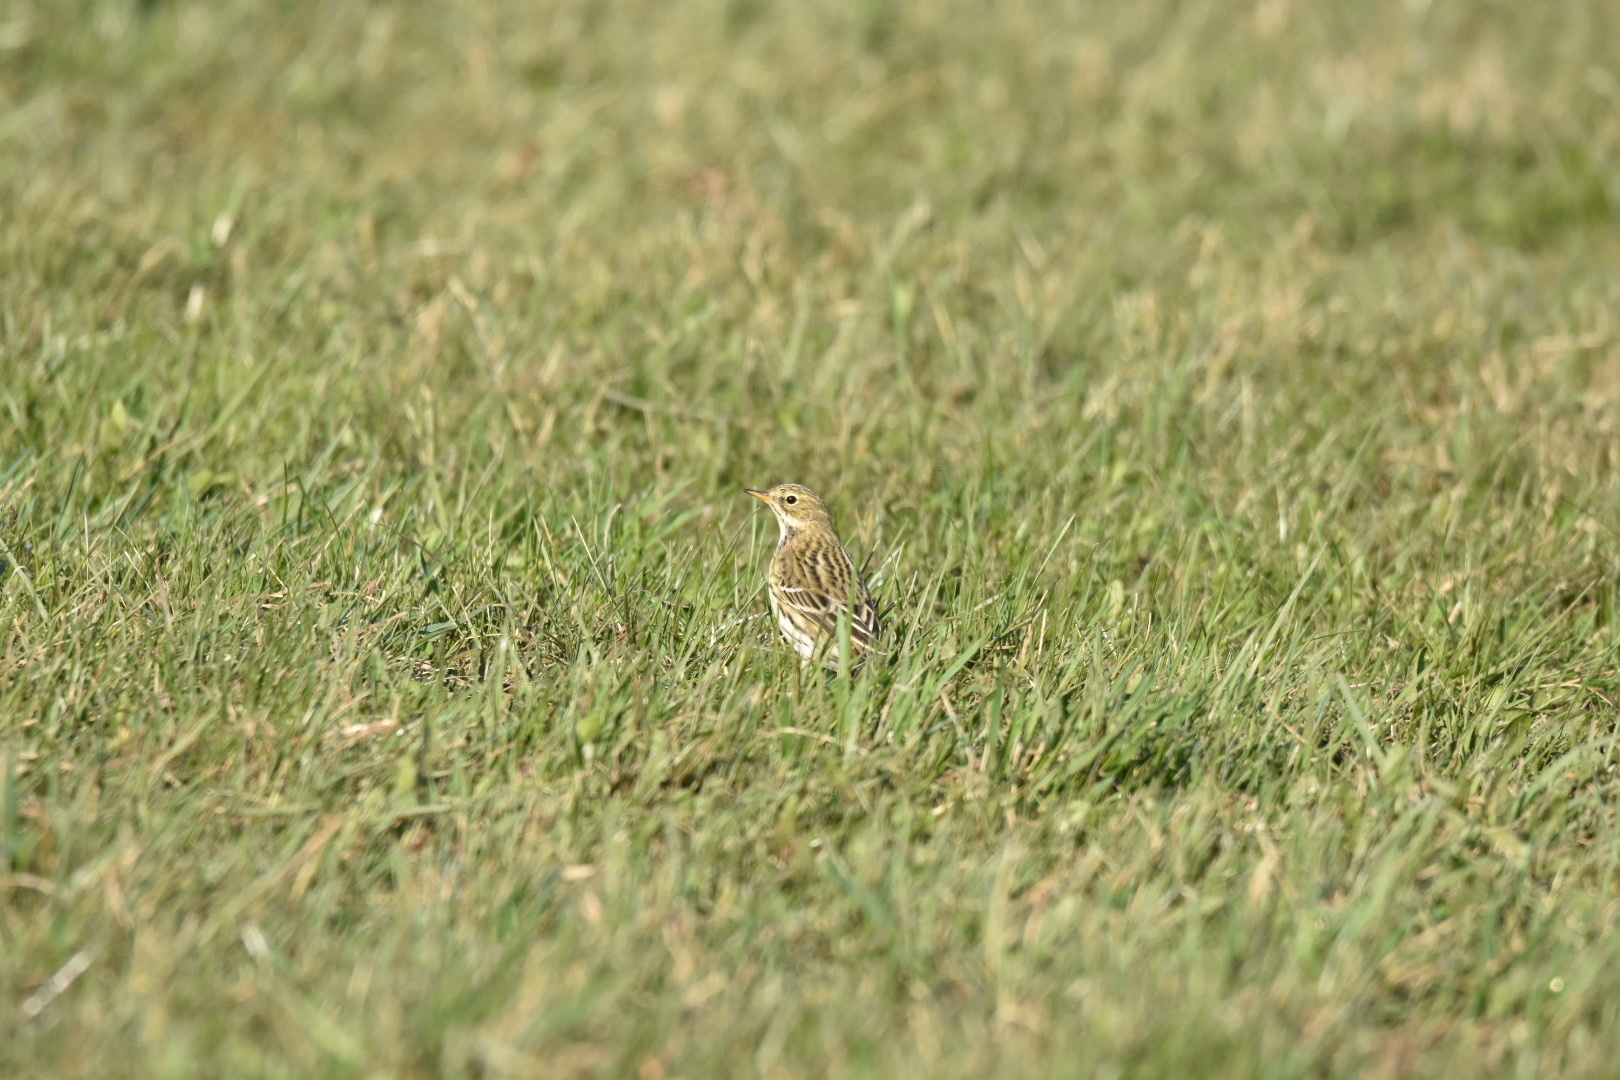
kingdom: Animalia
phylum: Chordata
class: Aves
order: Passeriformes
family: Motacillidae
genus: Anthus
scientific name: Anthus pratensis
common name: Meadow pipit
